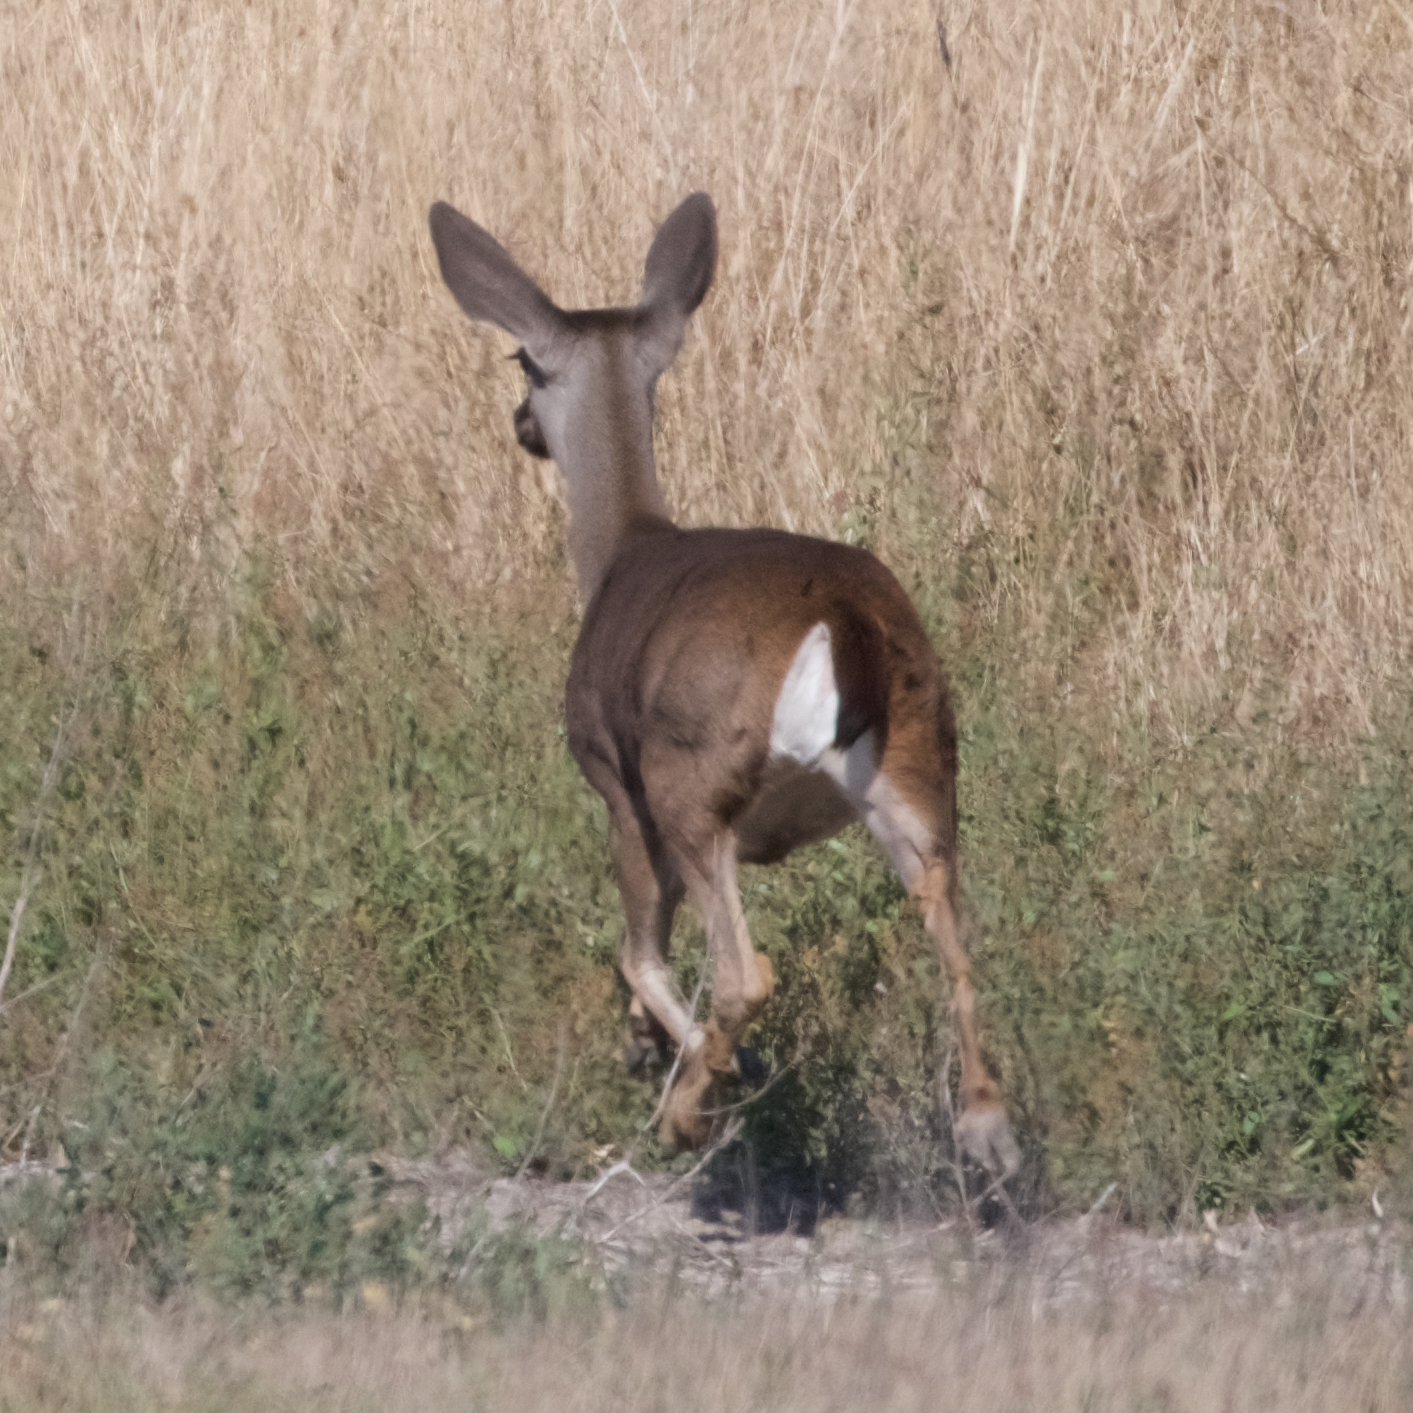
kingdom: Animalia
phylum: Chordata
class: Mammalia
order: Artiodactyla
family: Cervidae
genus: Odocoileus
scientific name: Odocoileus hemionus
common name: Mule deer
